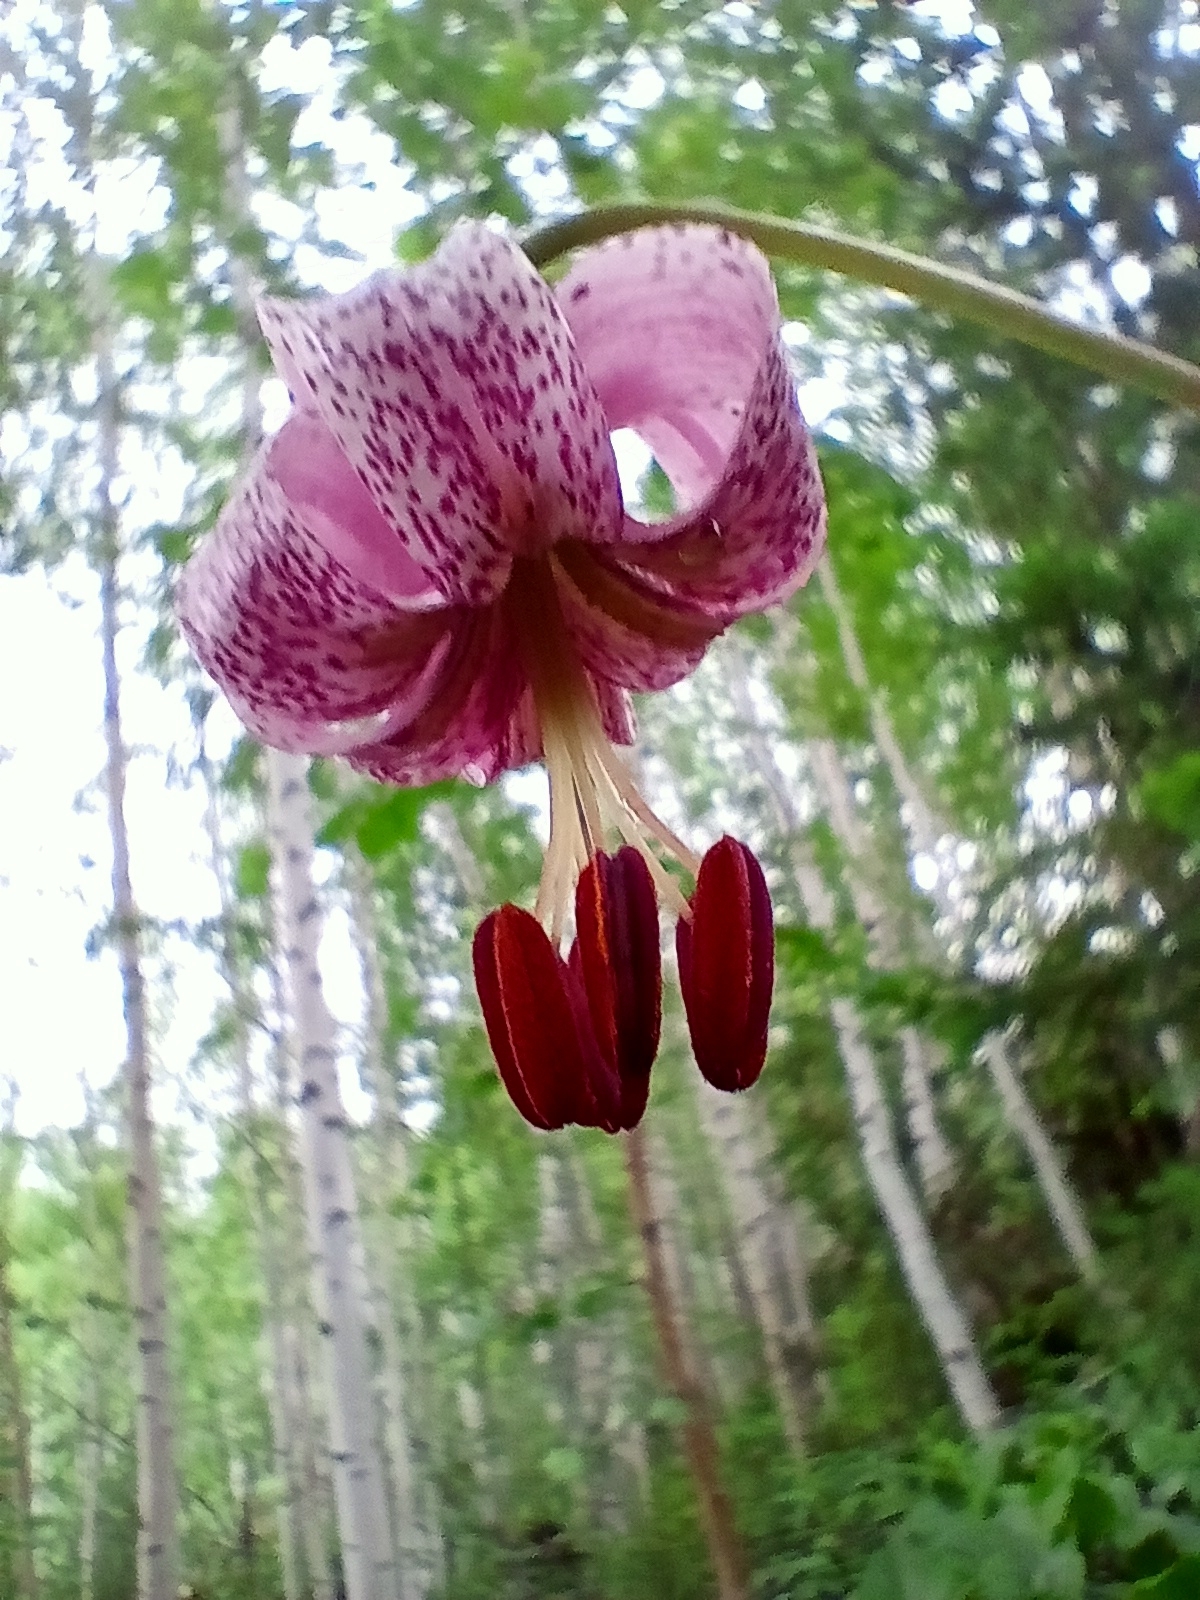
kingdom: Plantae
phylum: Tracheophyta
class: Liliopsida
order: Liliales
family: Liliaceae
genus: Lilium
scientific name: Lilium martagon
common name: Martagon lily
